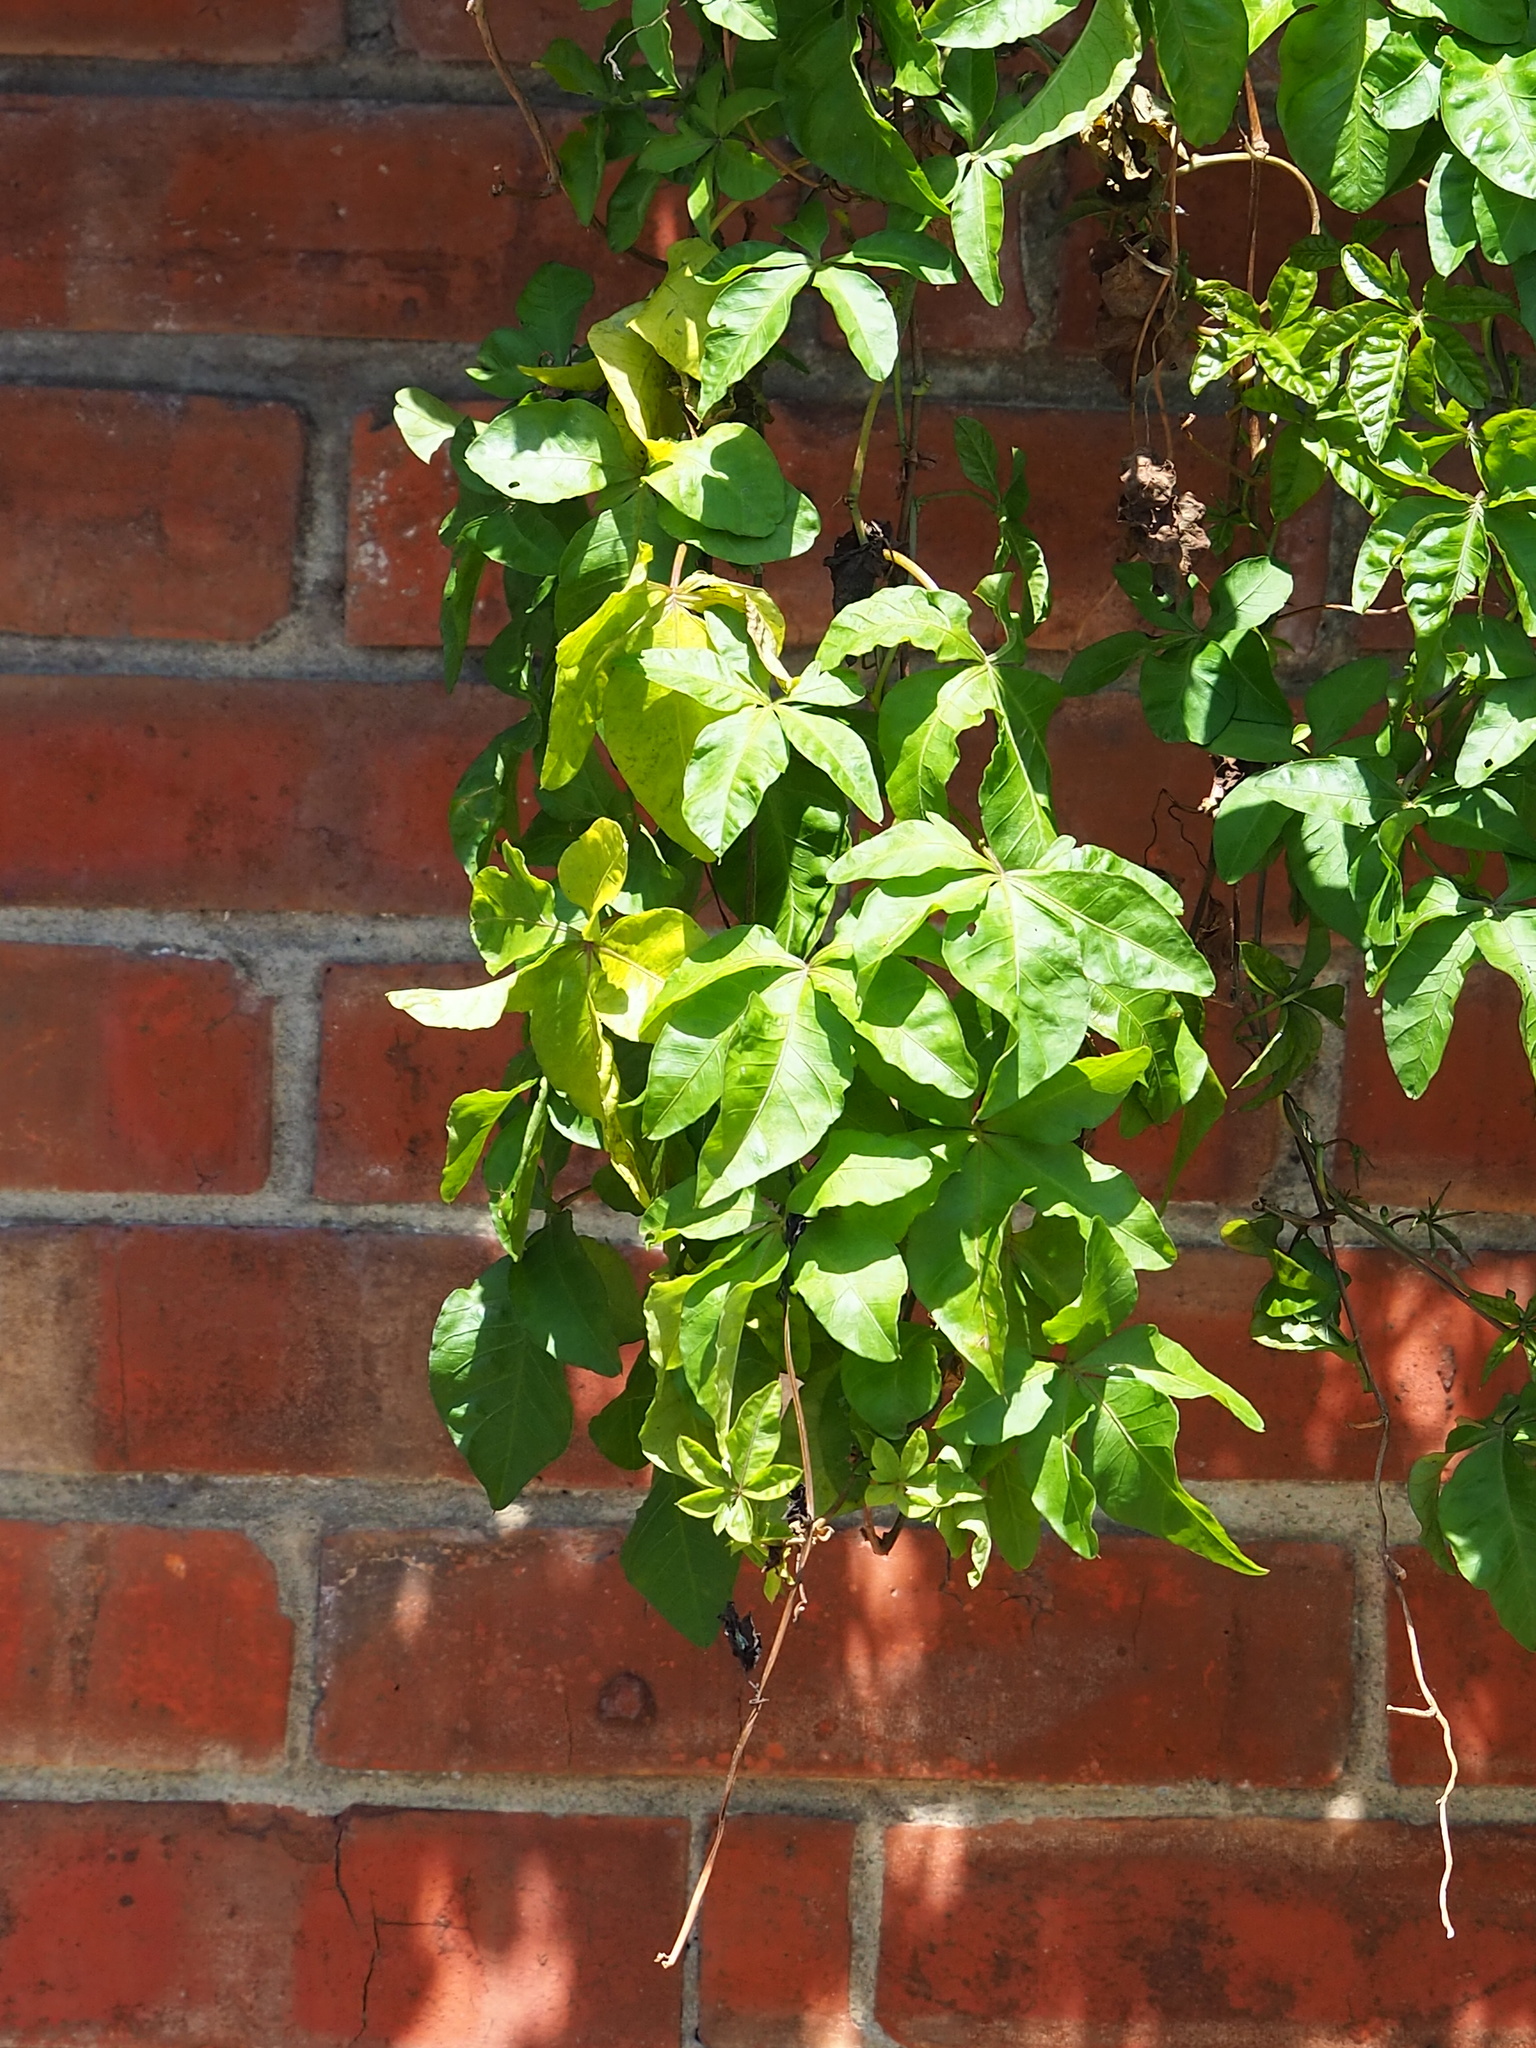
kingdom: Plantae
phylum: Tracheophyta
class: Magnoliopsida
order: Solanales
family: Convolvulaceae
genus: Ipomoea
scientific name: Ipomoea cairica
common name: Mile a minute vine
